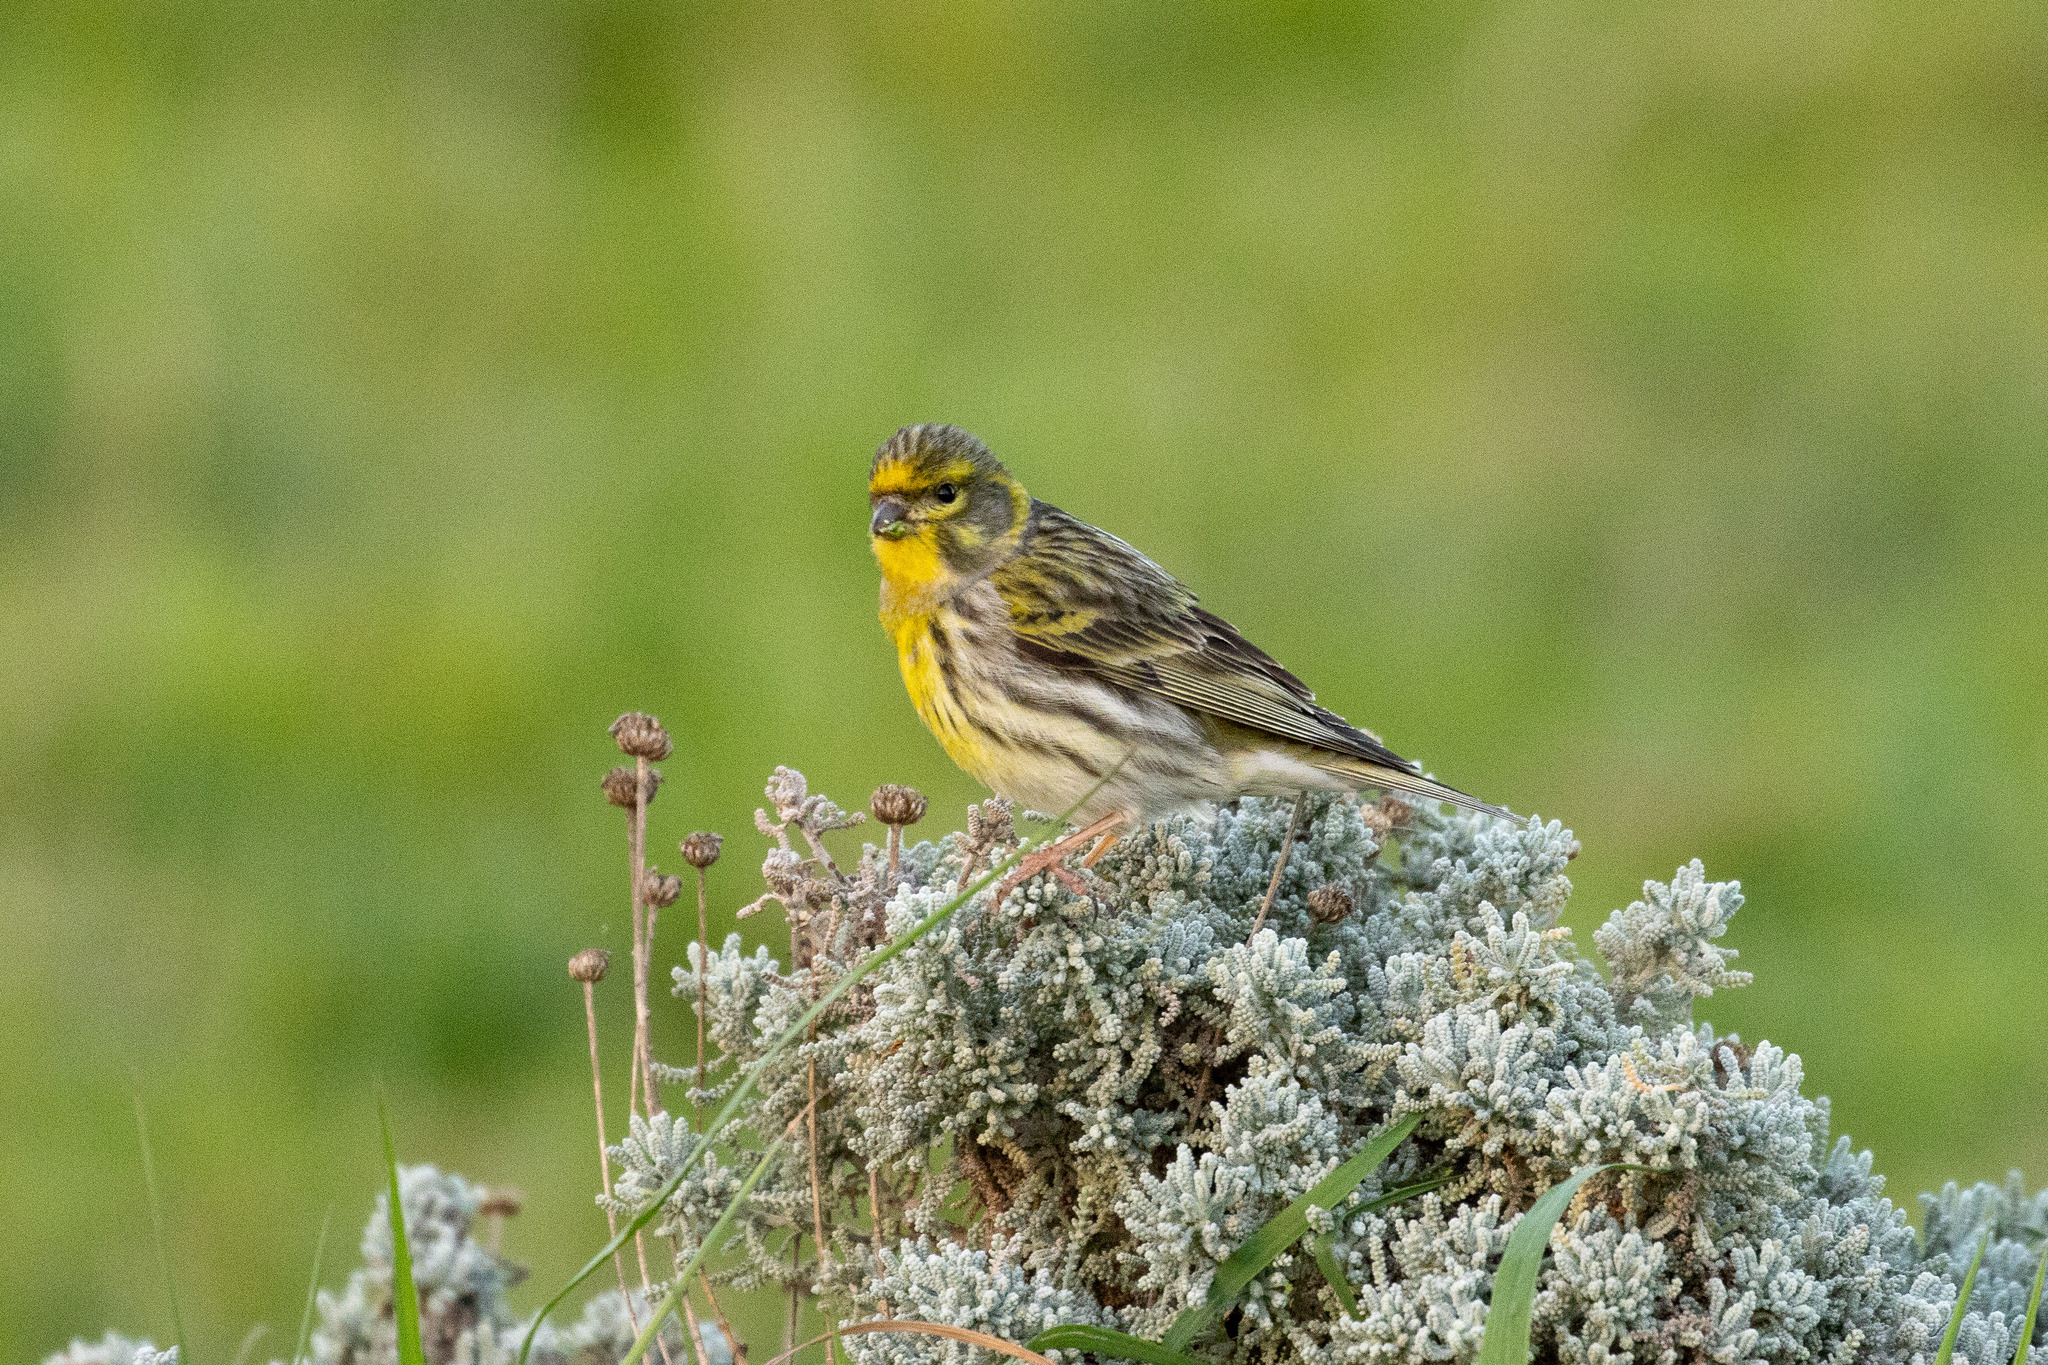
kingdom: Animalia
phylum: Chordata
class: Aves
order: Passeriformes
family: Fringillidae
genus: Serinus
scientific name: Serinus serinus
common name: European serin
